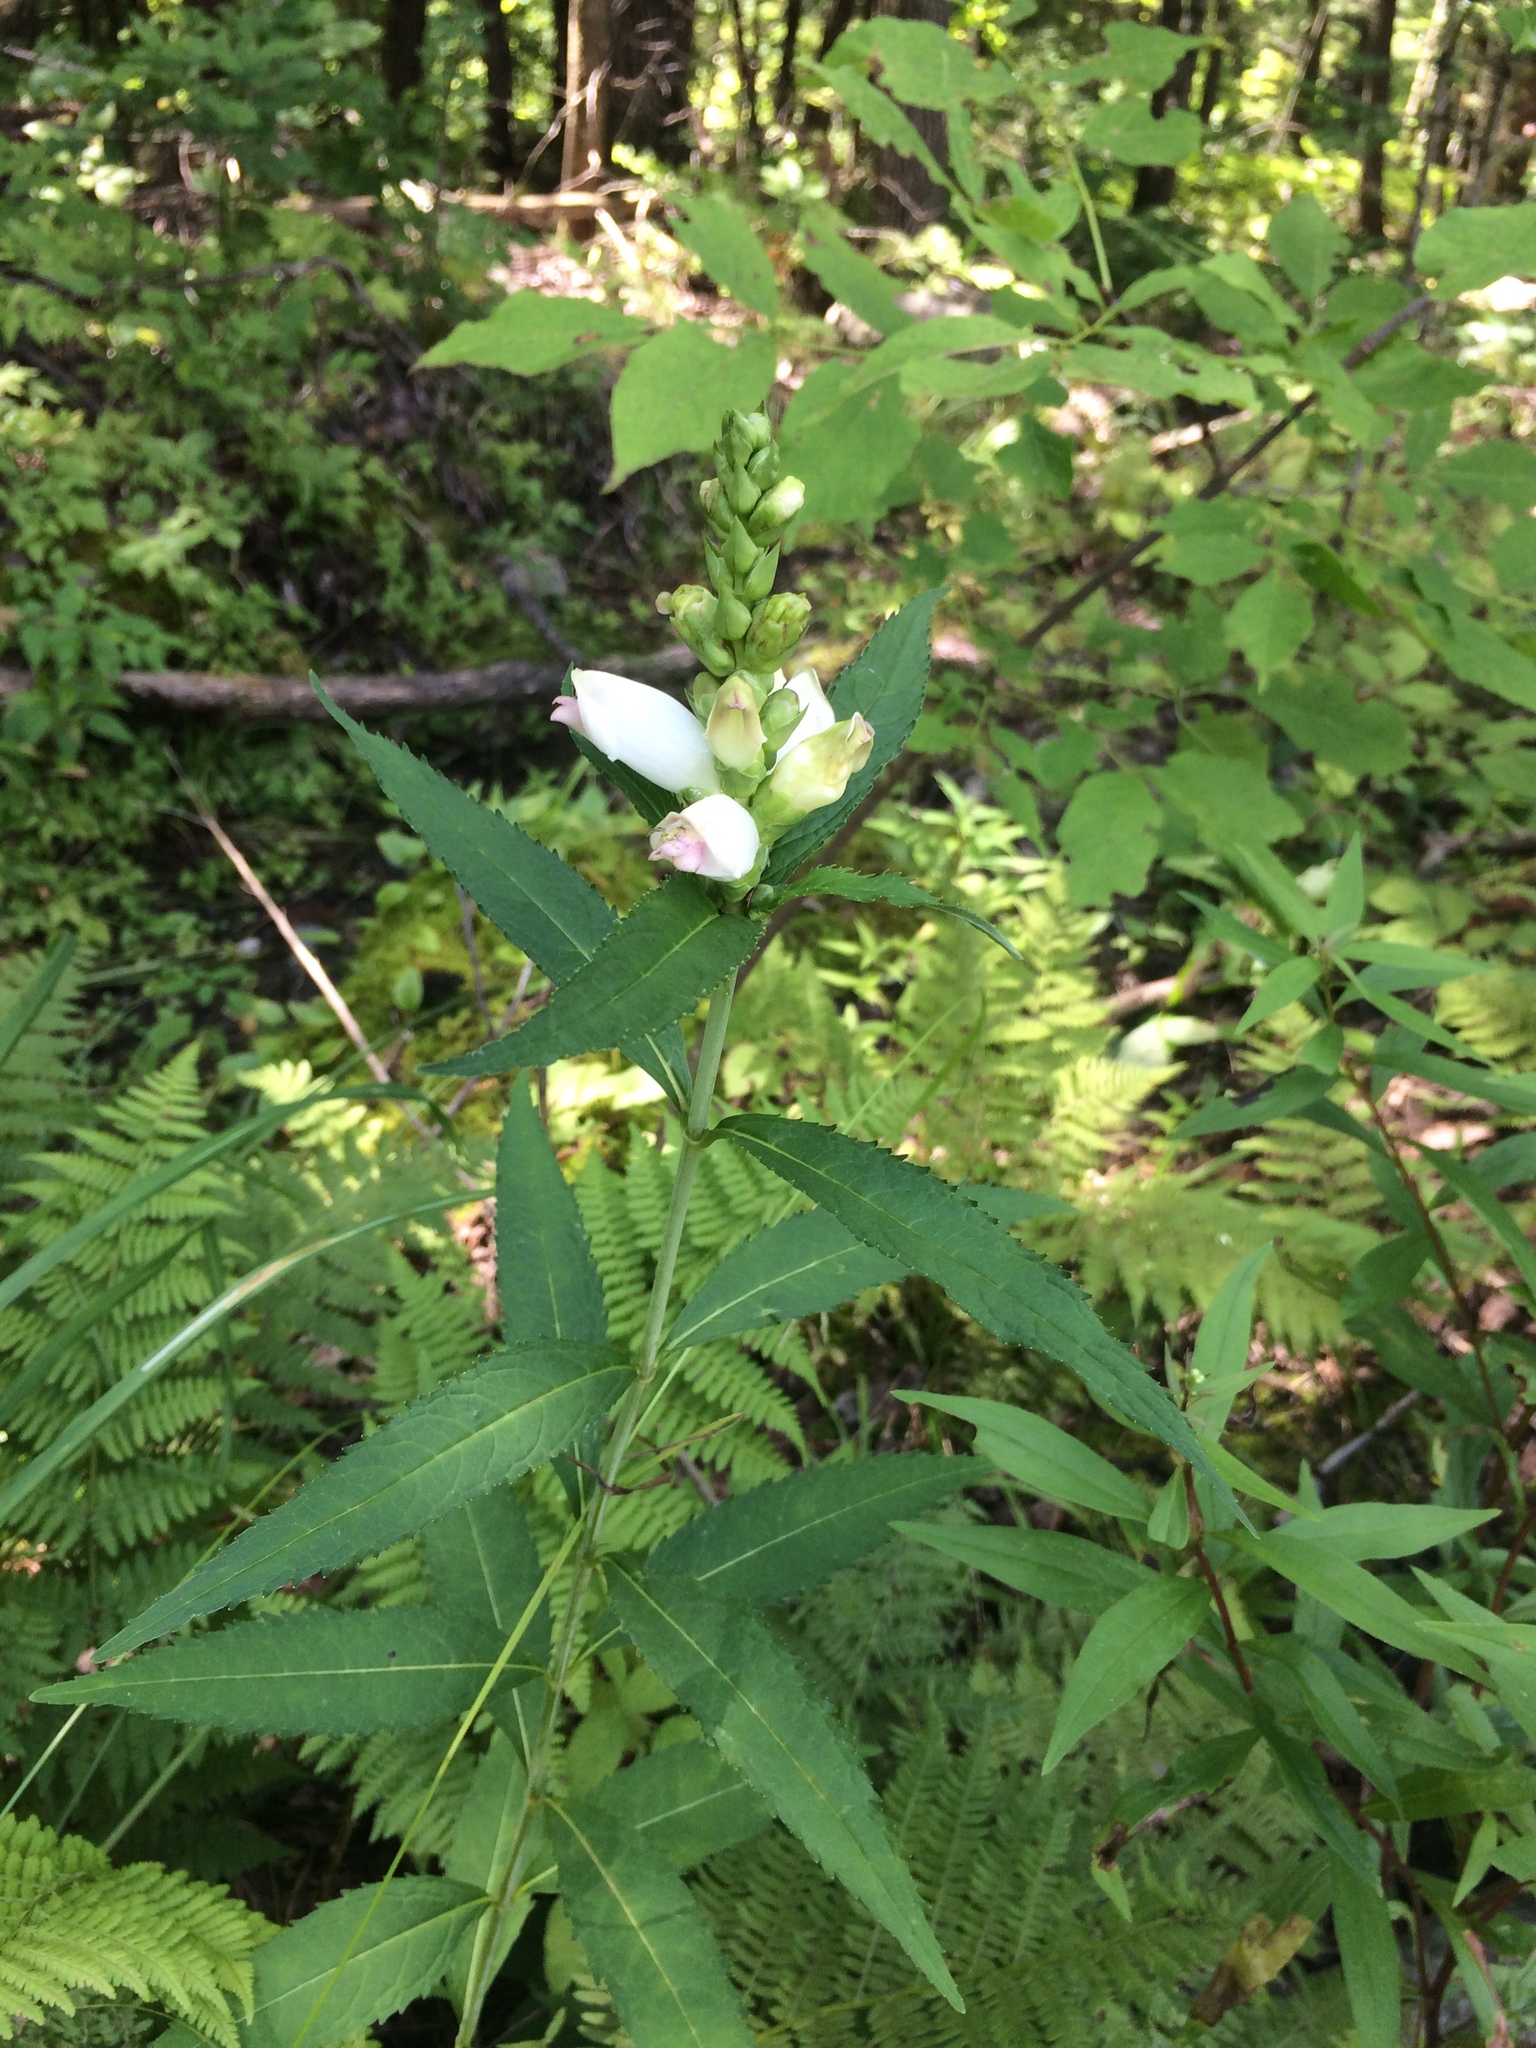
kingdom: Plantae
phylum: Tracheophyta
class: Magnoliopsida
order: Lamiales
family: Plantaginaceae
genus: Chelone
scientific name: Chelone glabra
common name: Snakehead
